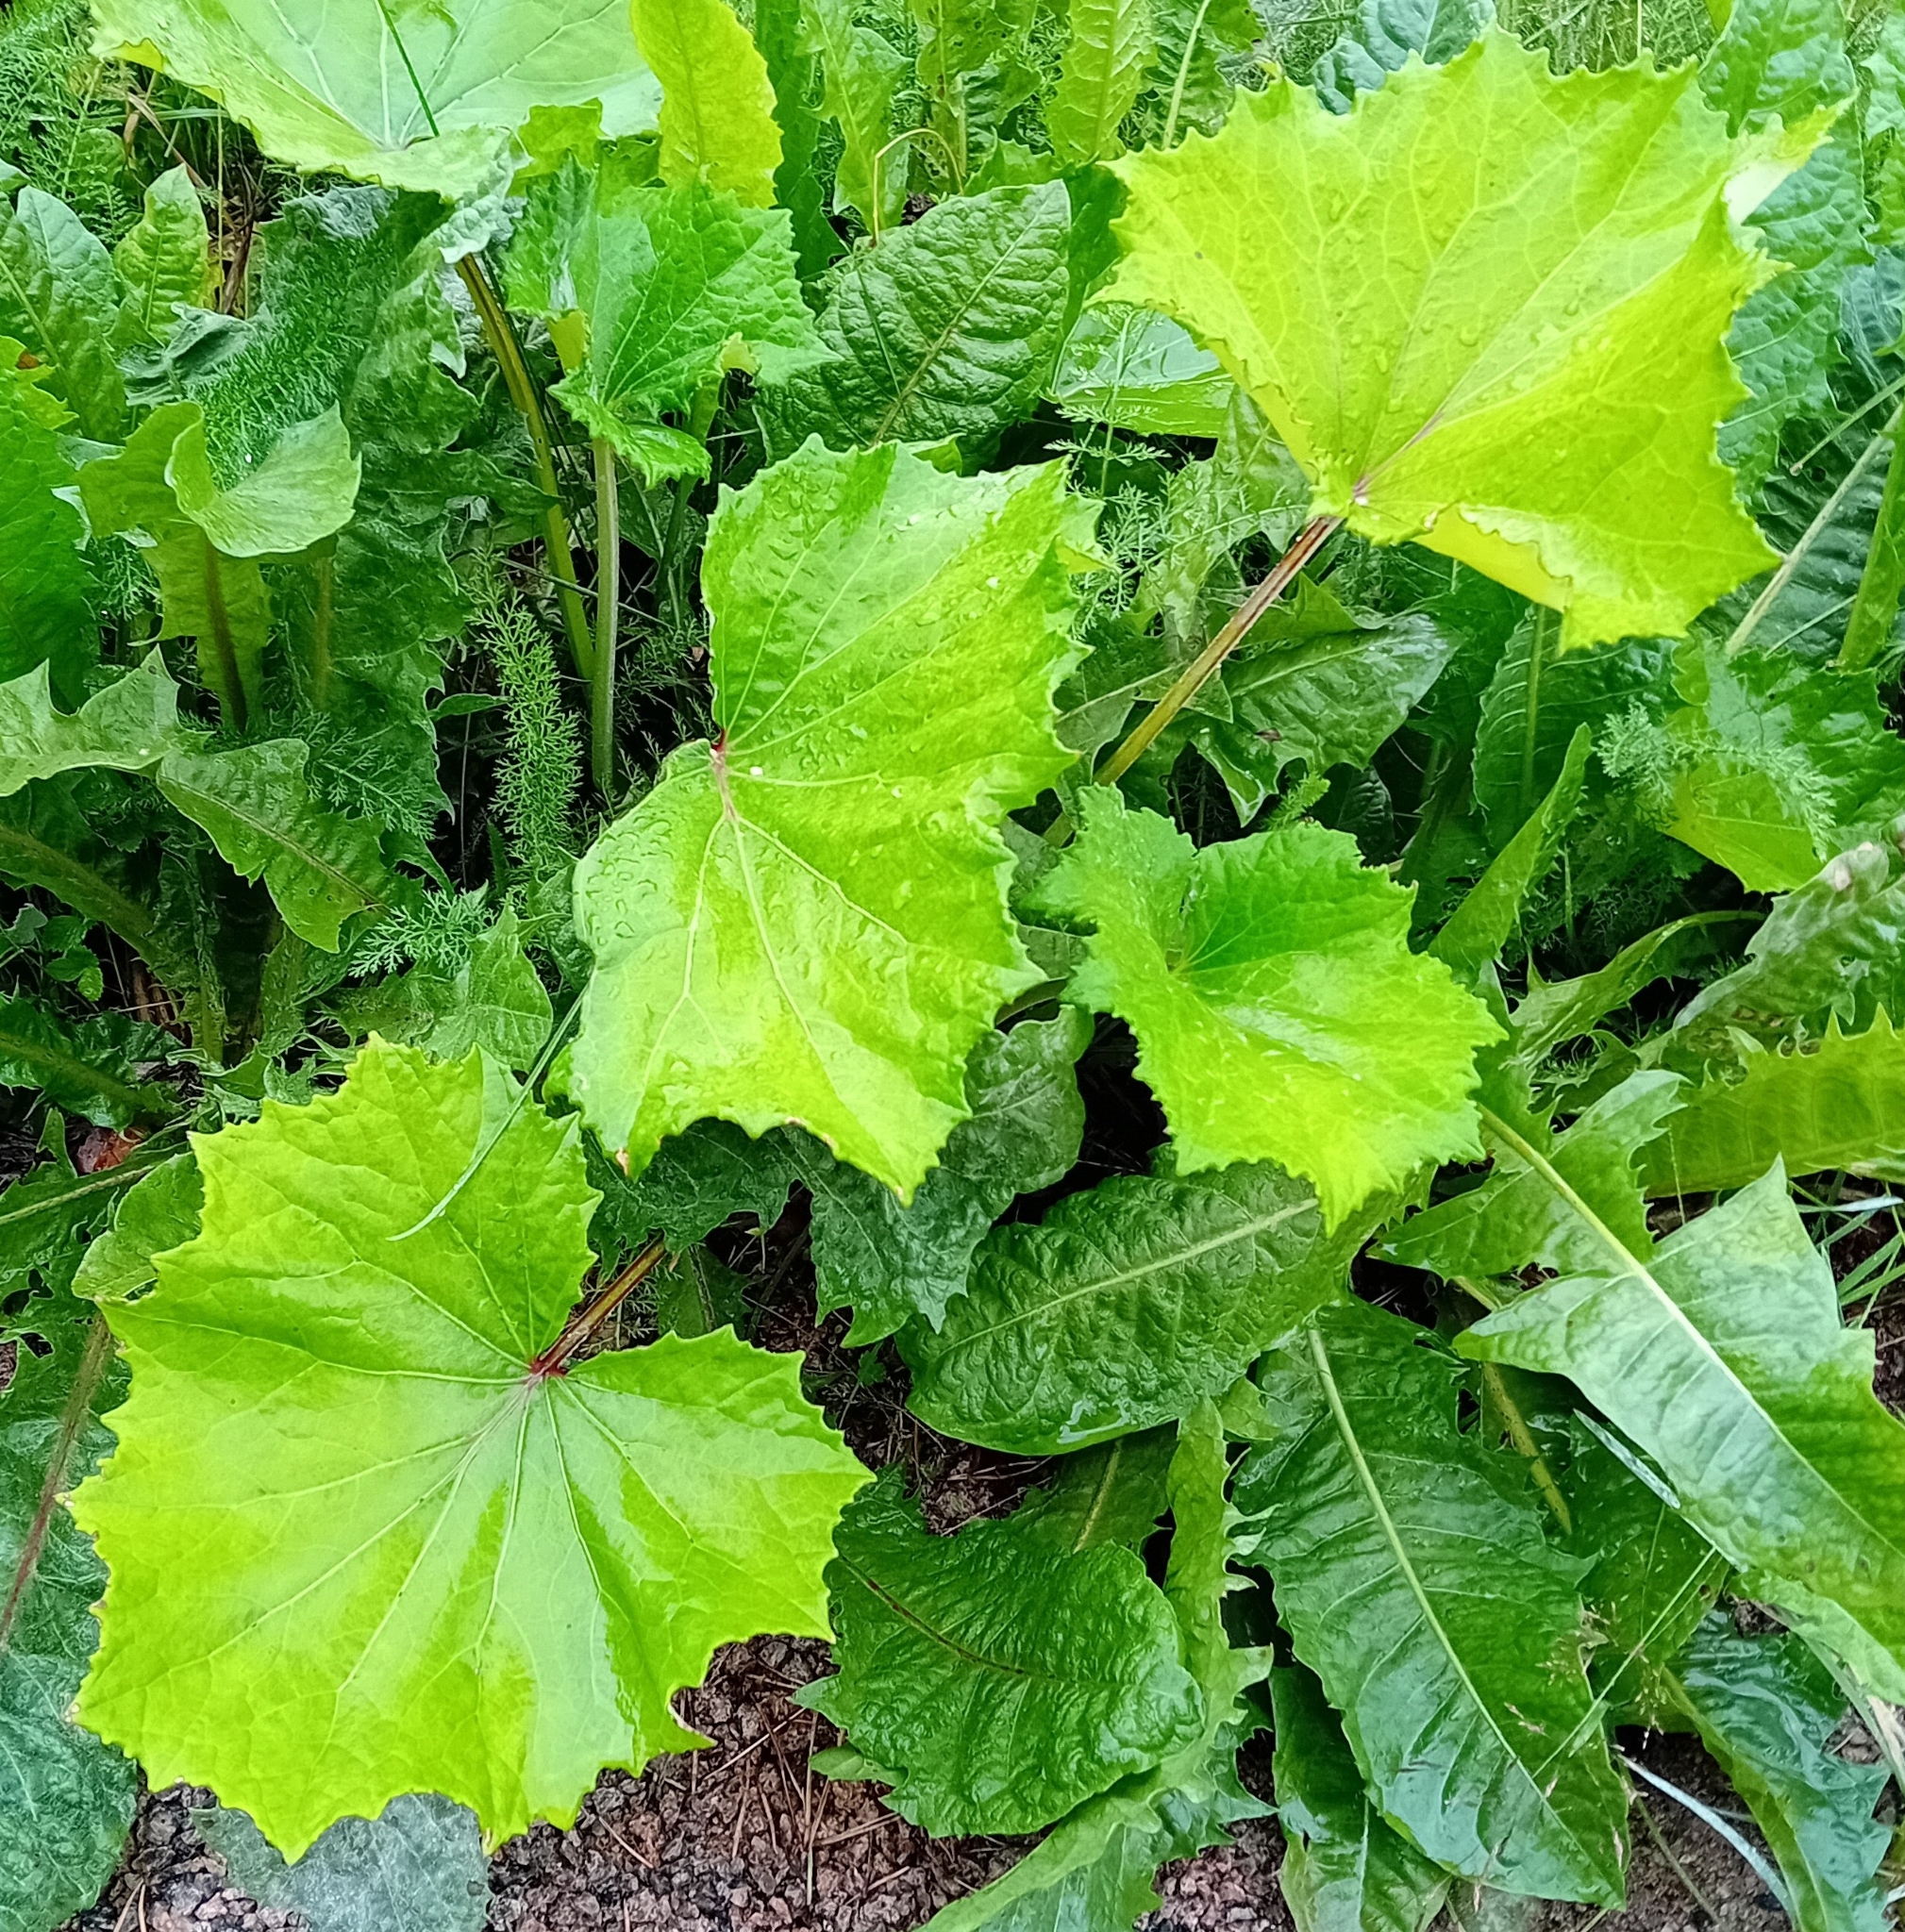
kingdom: Plantae
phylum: Tracheophyta
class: Magnoliopsida
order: Asterales
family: Asteraceae
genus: Tussilago
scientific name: Tussilago farfara
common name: Coltsfoot
